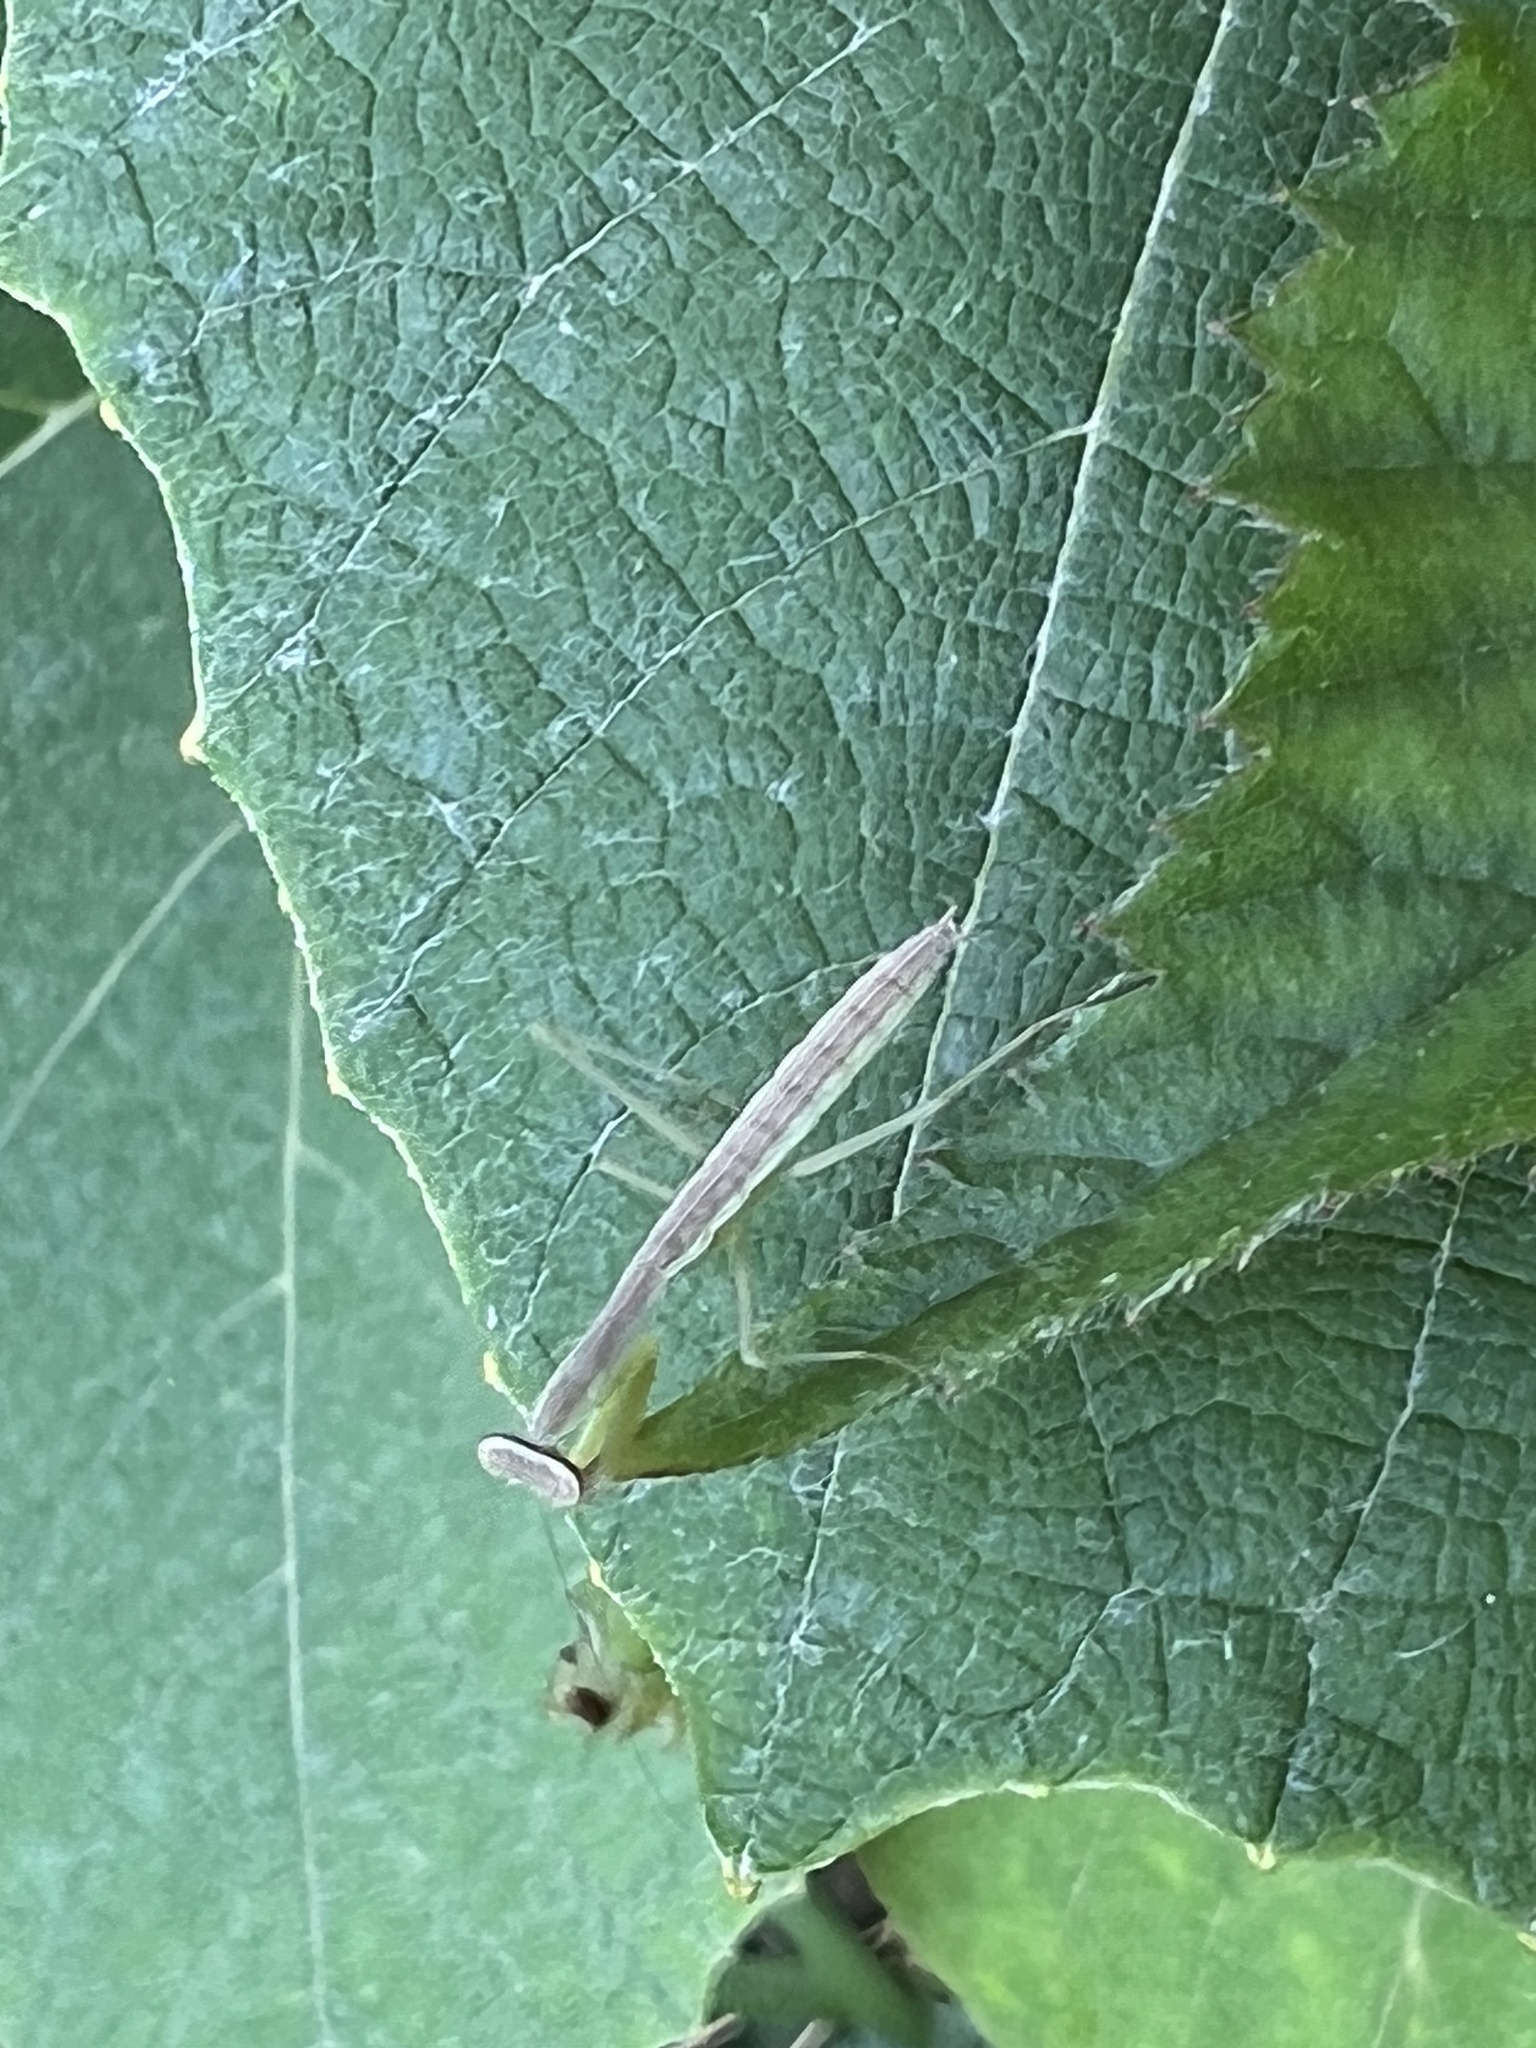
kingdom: Animalia
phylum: Arthropoda
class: Insecta
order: Mantodea
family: Mantidae
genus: Tenodera
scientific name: Tenodera sinensis
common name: Chinese mantis
